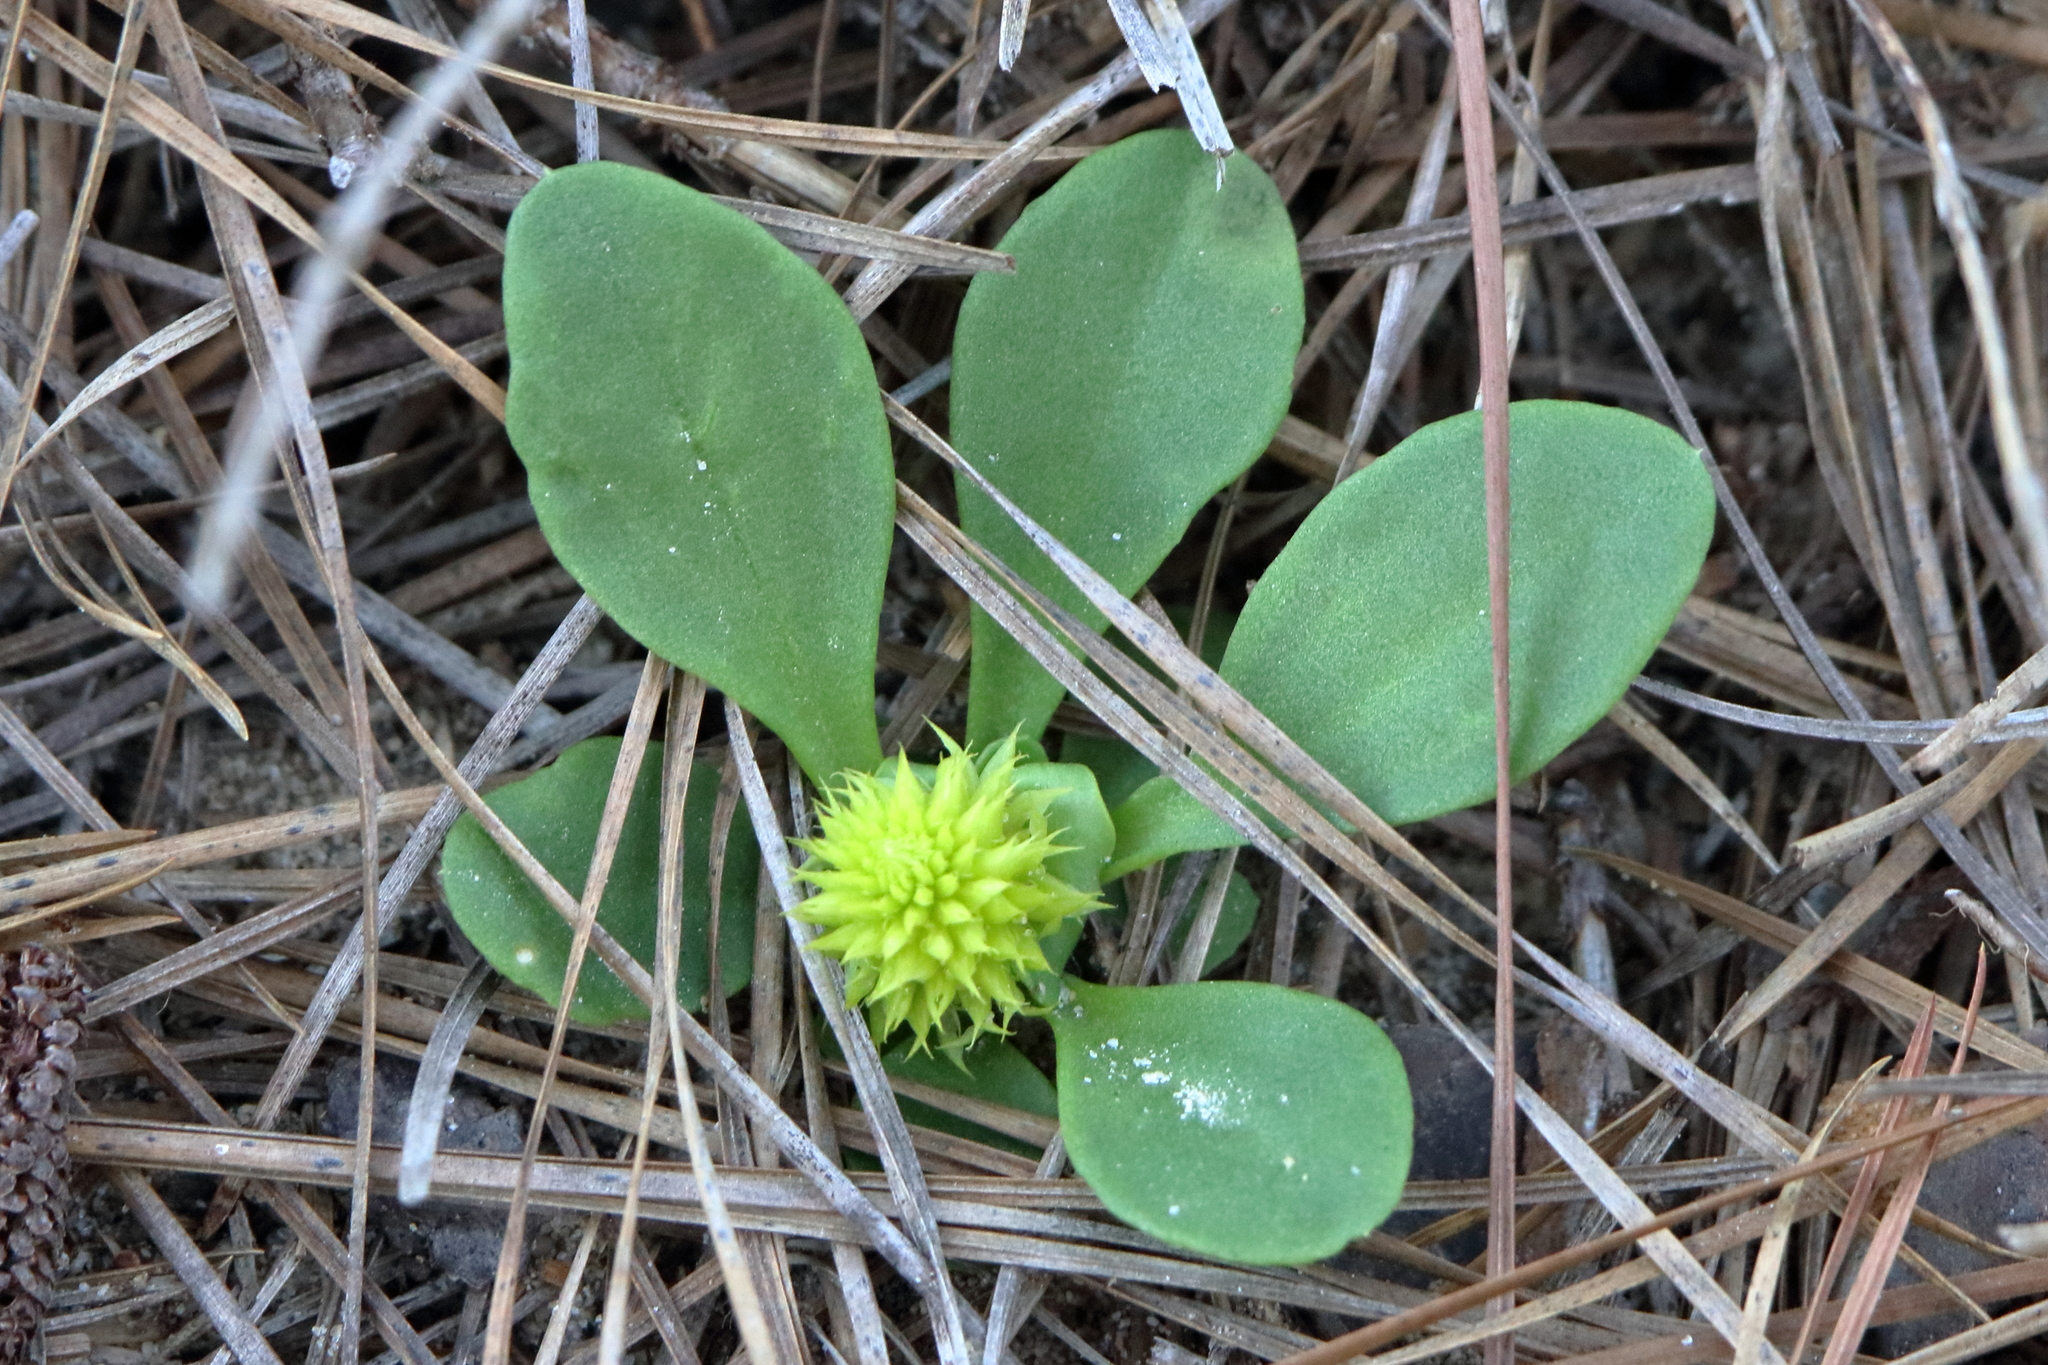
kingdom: Plantae
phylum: Tracheophyta
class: Magnoliopsida
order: Fabales
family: Polygalaceae
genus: Polygala
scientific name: Polygala nana
